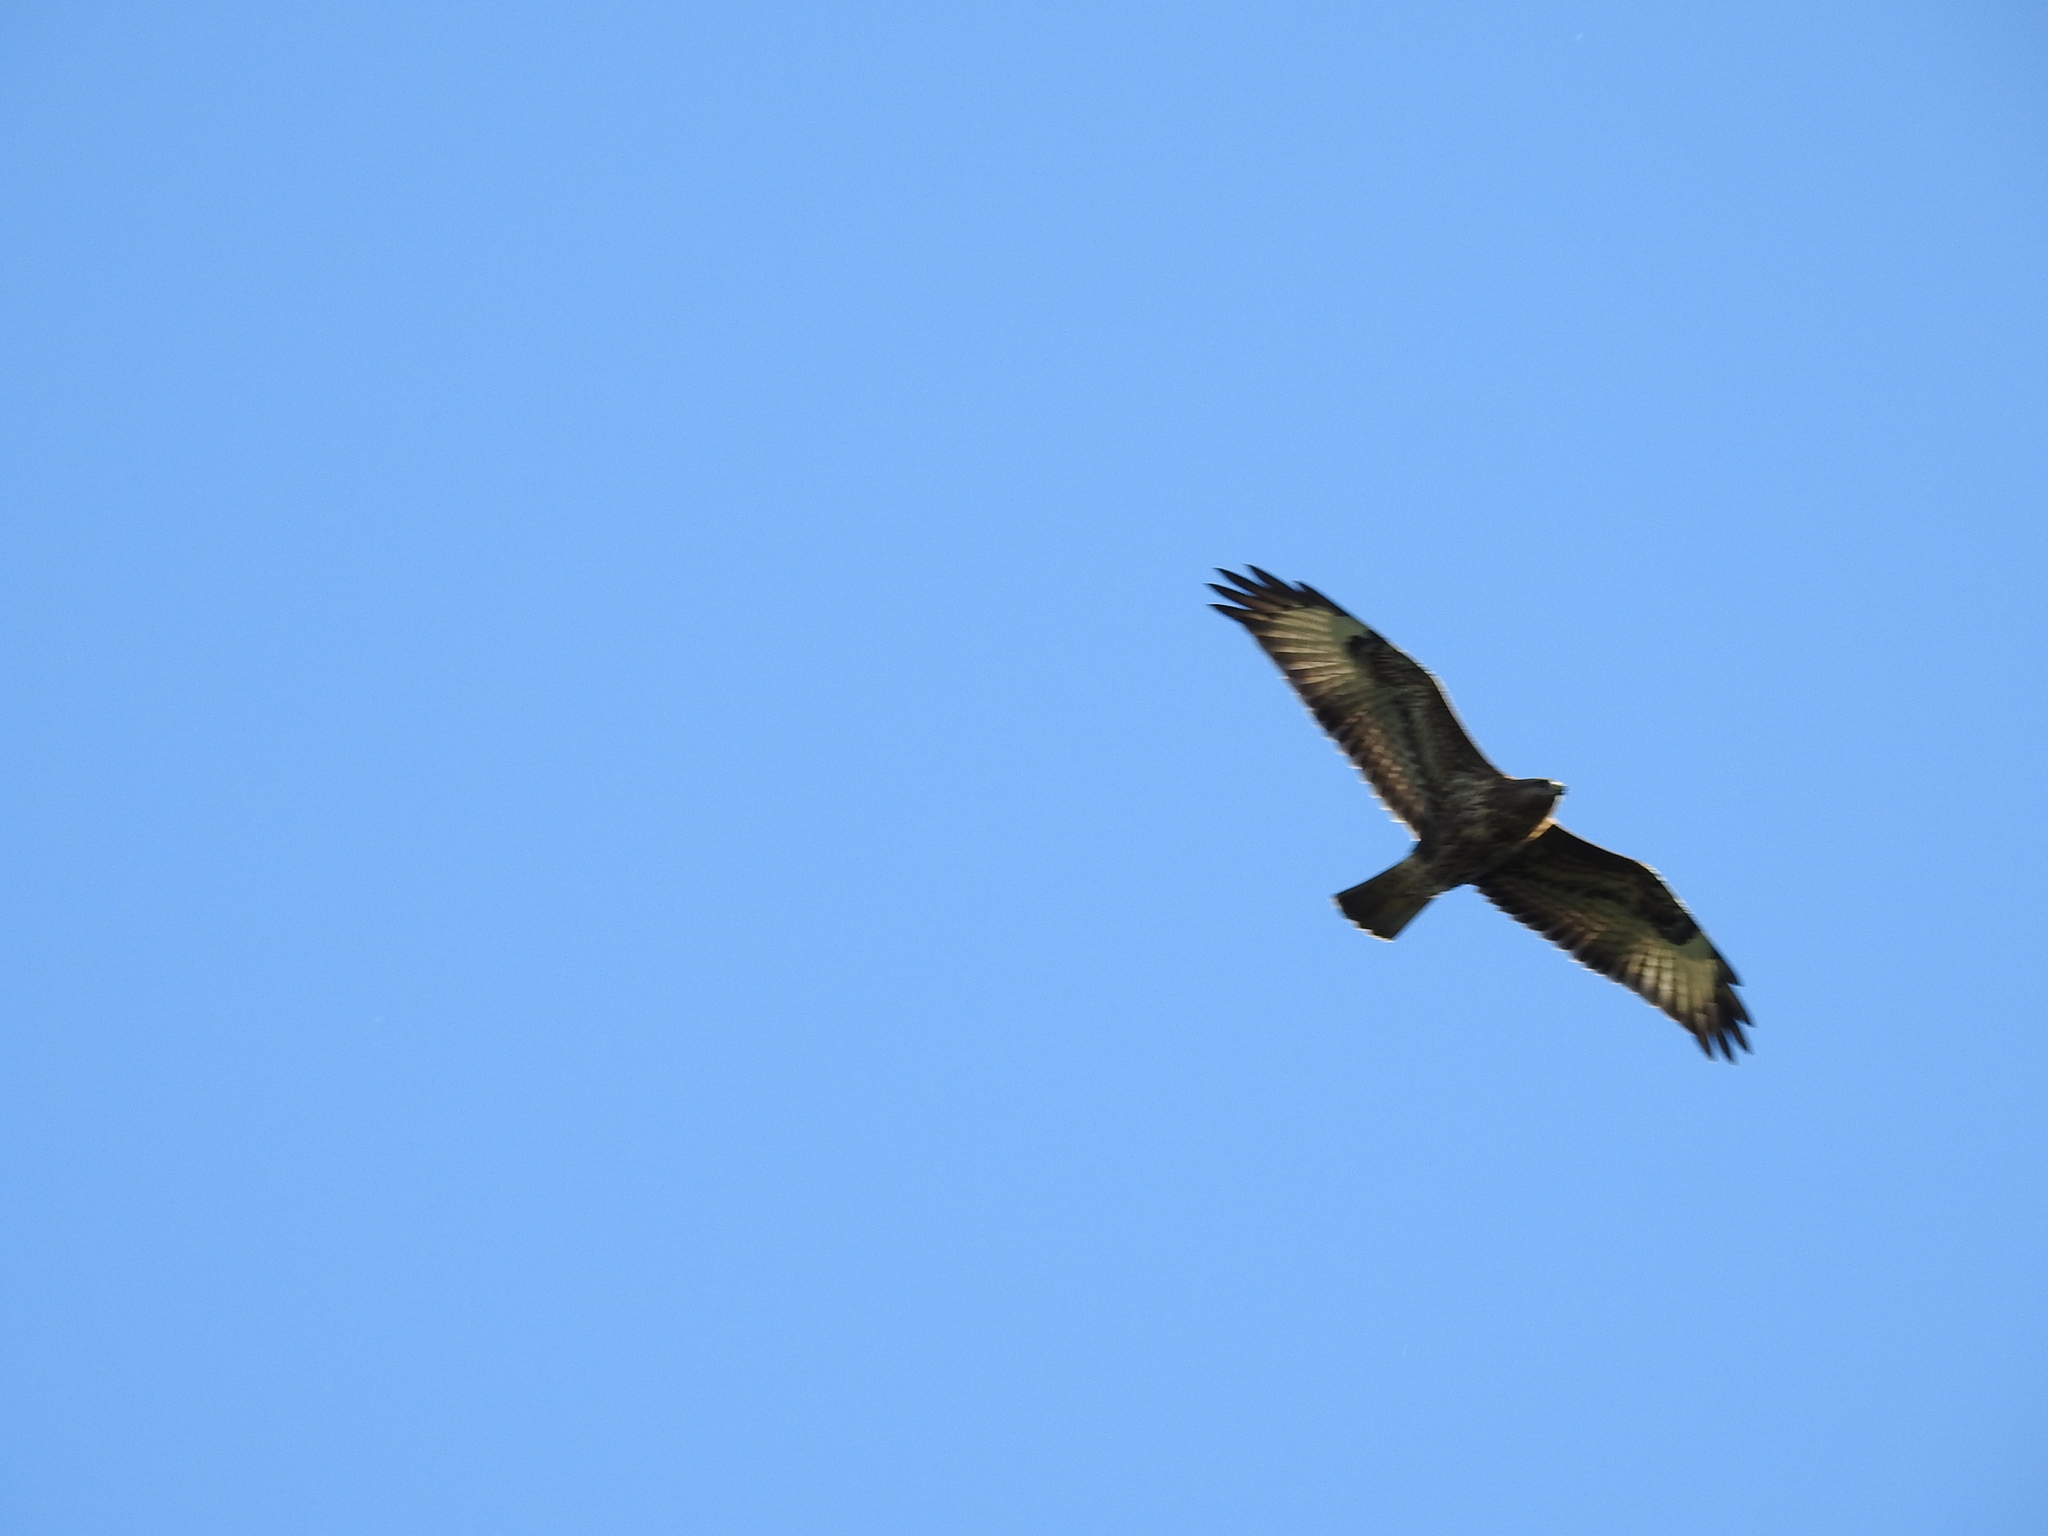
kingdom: Animalia
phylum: Chordata
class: Aves
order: Accipitriformes
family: Accipitridae
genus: Buteo
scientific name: Buteo buteo
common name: Common buzzard
